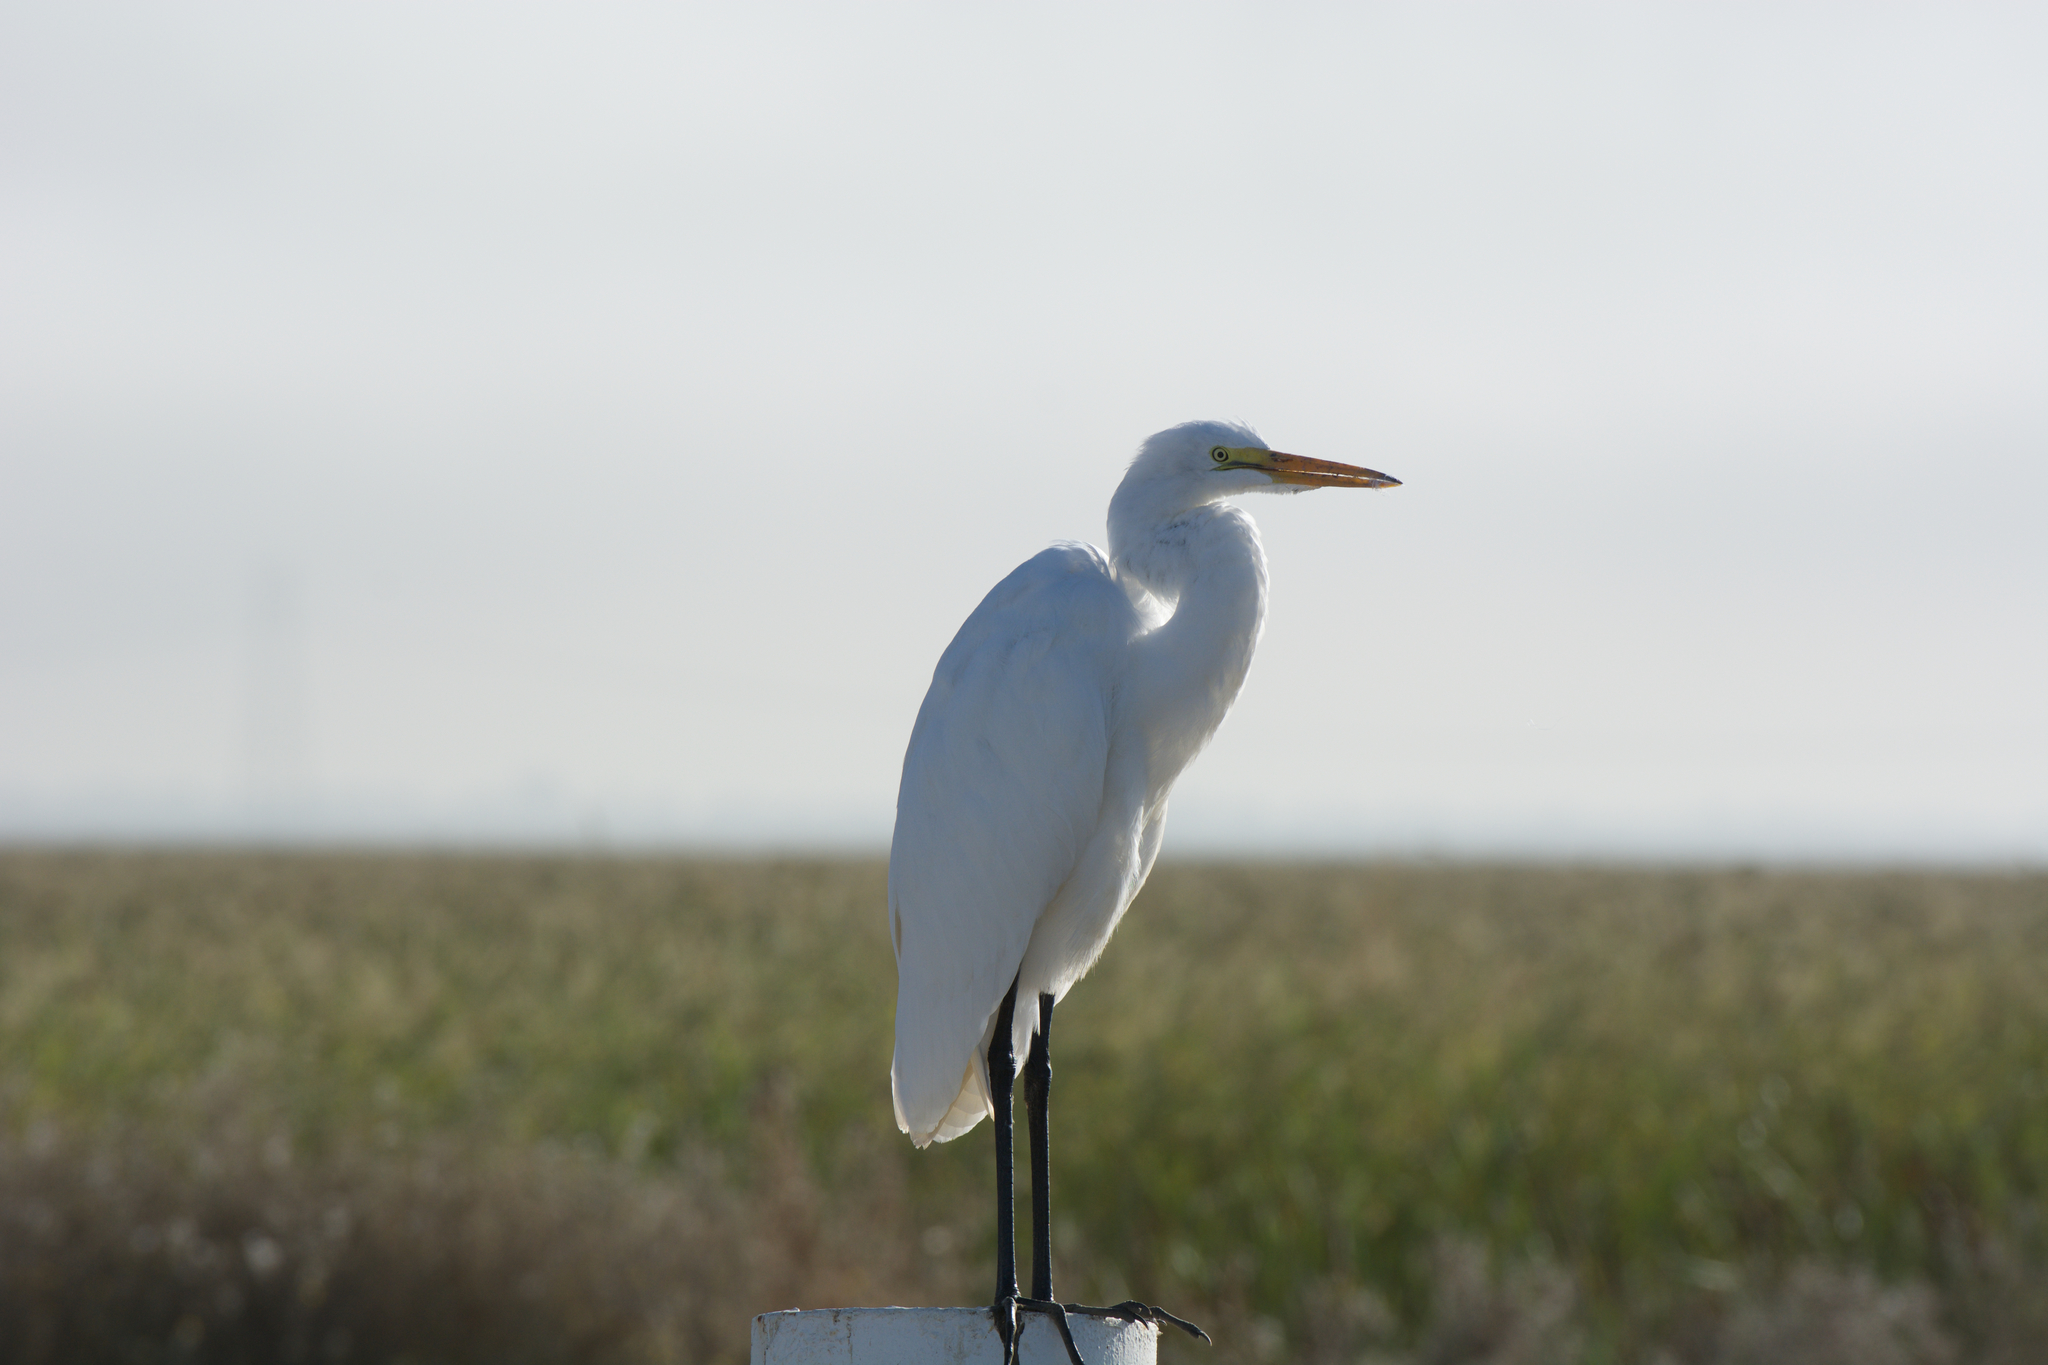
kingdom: Animalia
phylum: Chordata
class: Aves
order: Pelecaniformes
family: Ardeidae
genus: Ardea
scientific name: Ardea alba
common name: Great egret
